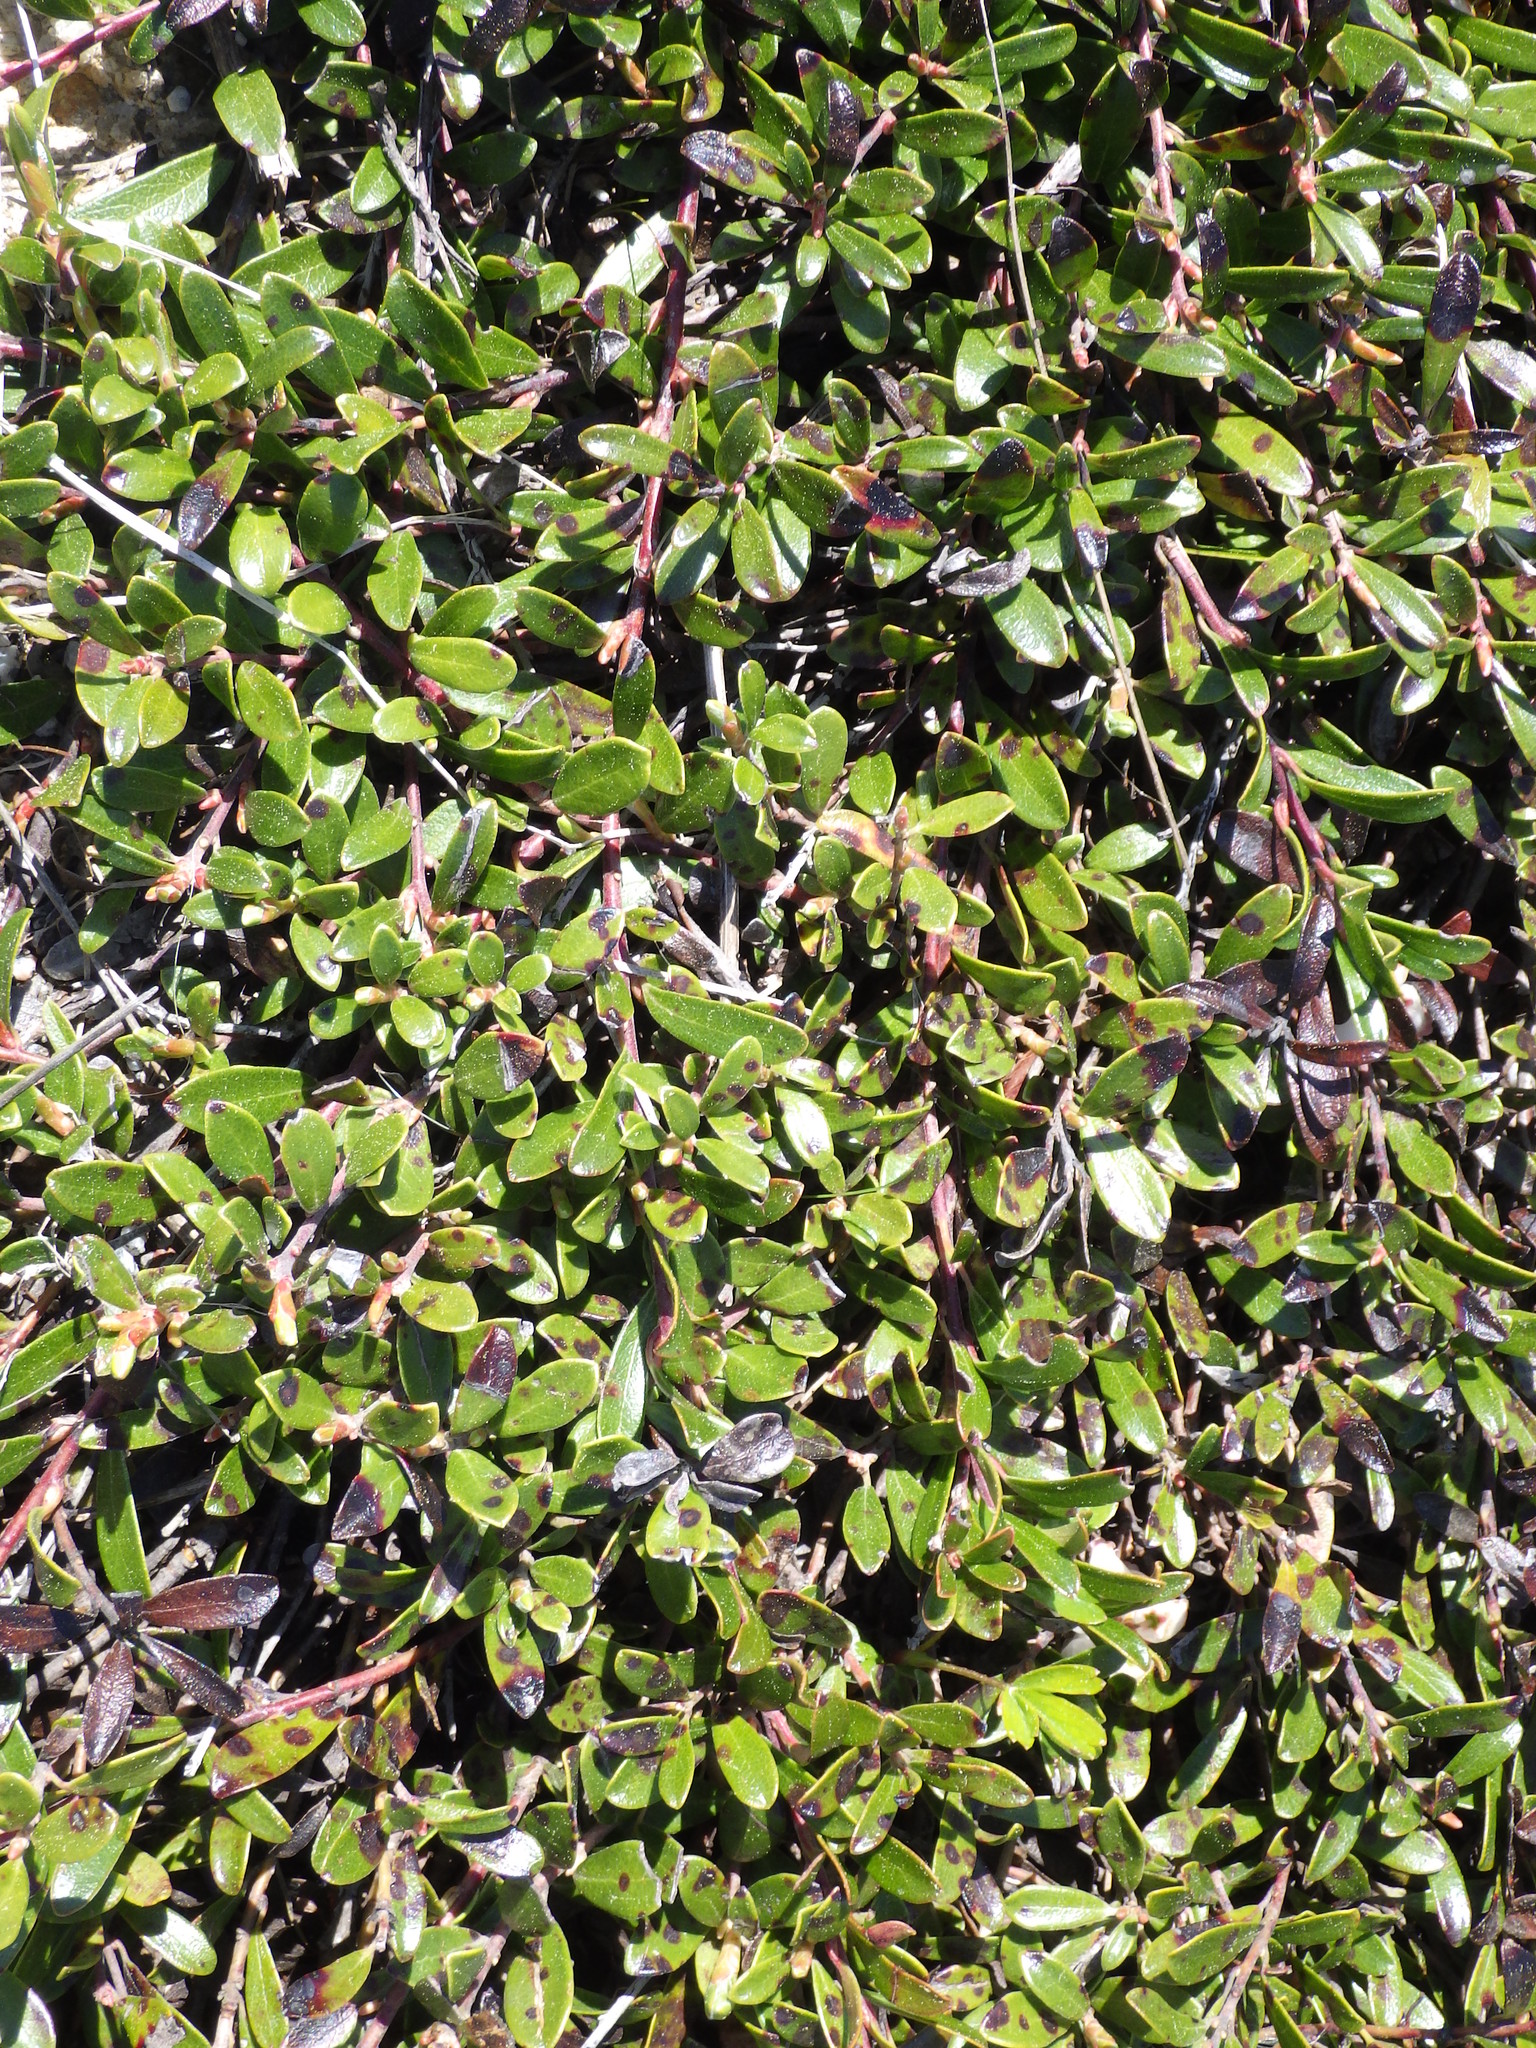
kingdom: Plantae
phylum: Tracheophyta
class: Magnoliopsida
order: Ericales
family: Ericaceae
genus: Arctostaphylos
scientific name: Arctostaphylos uva-ursi
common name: Bearberry
